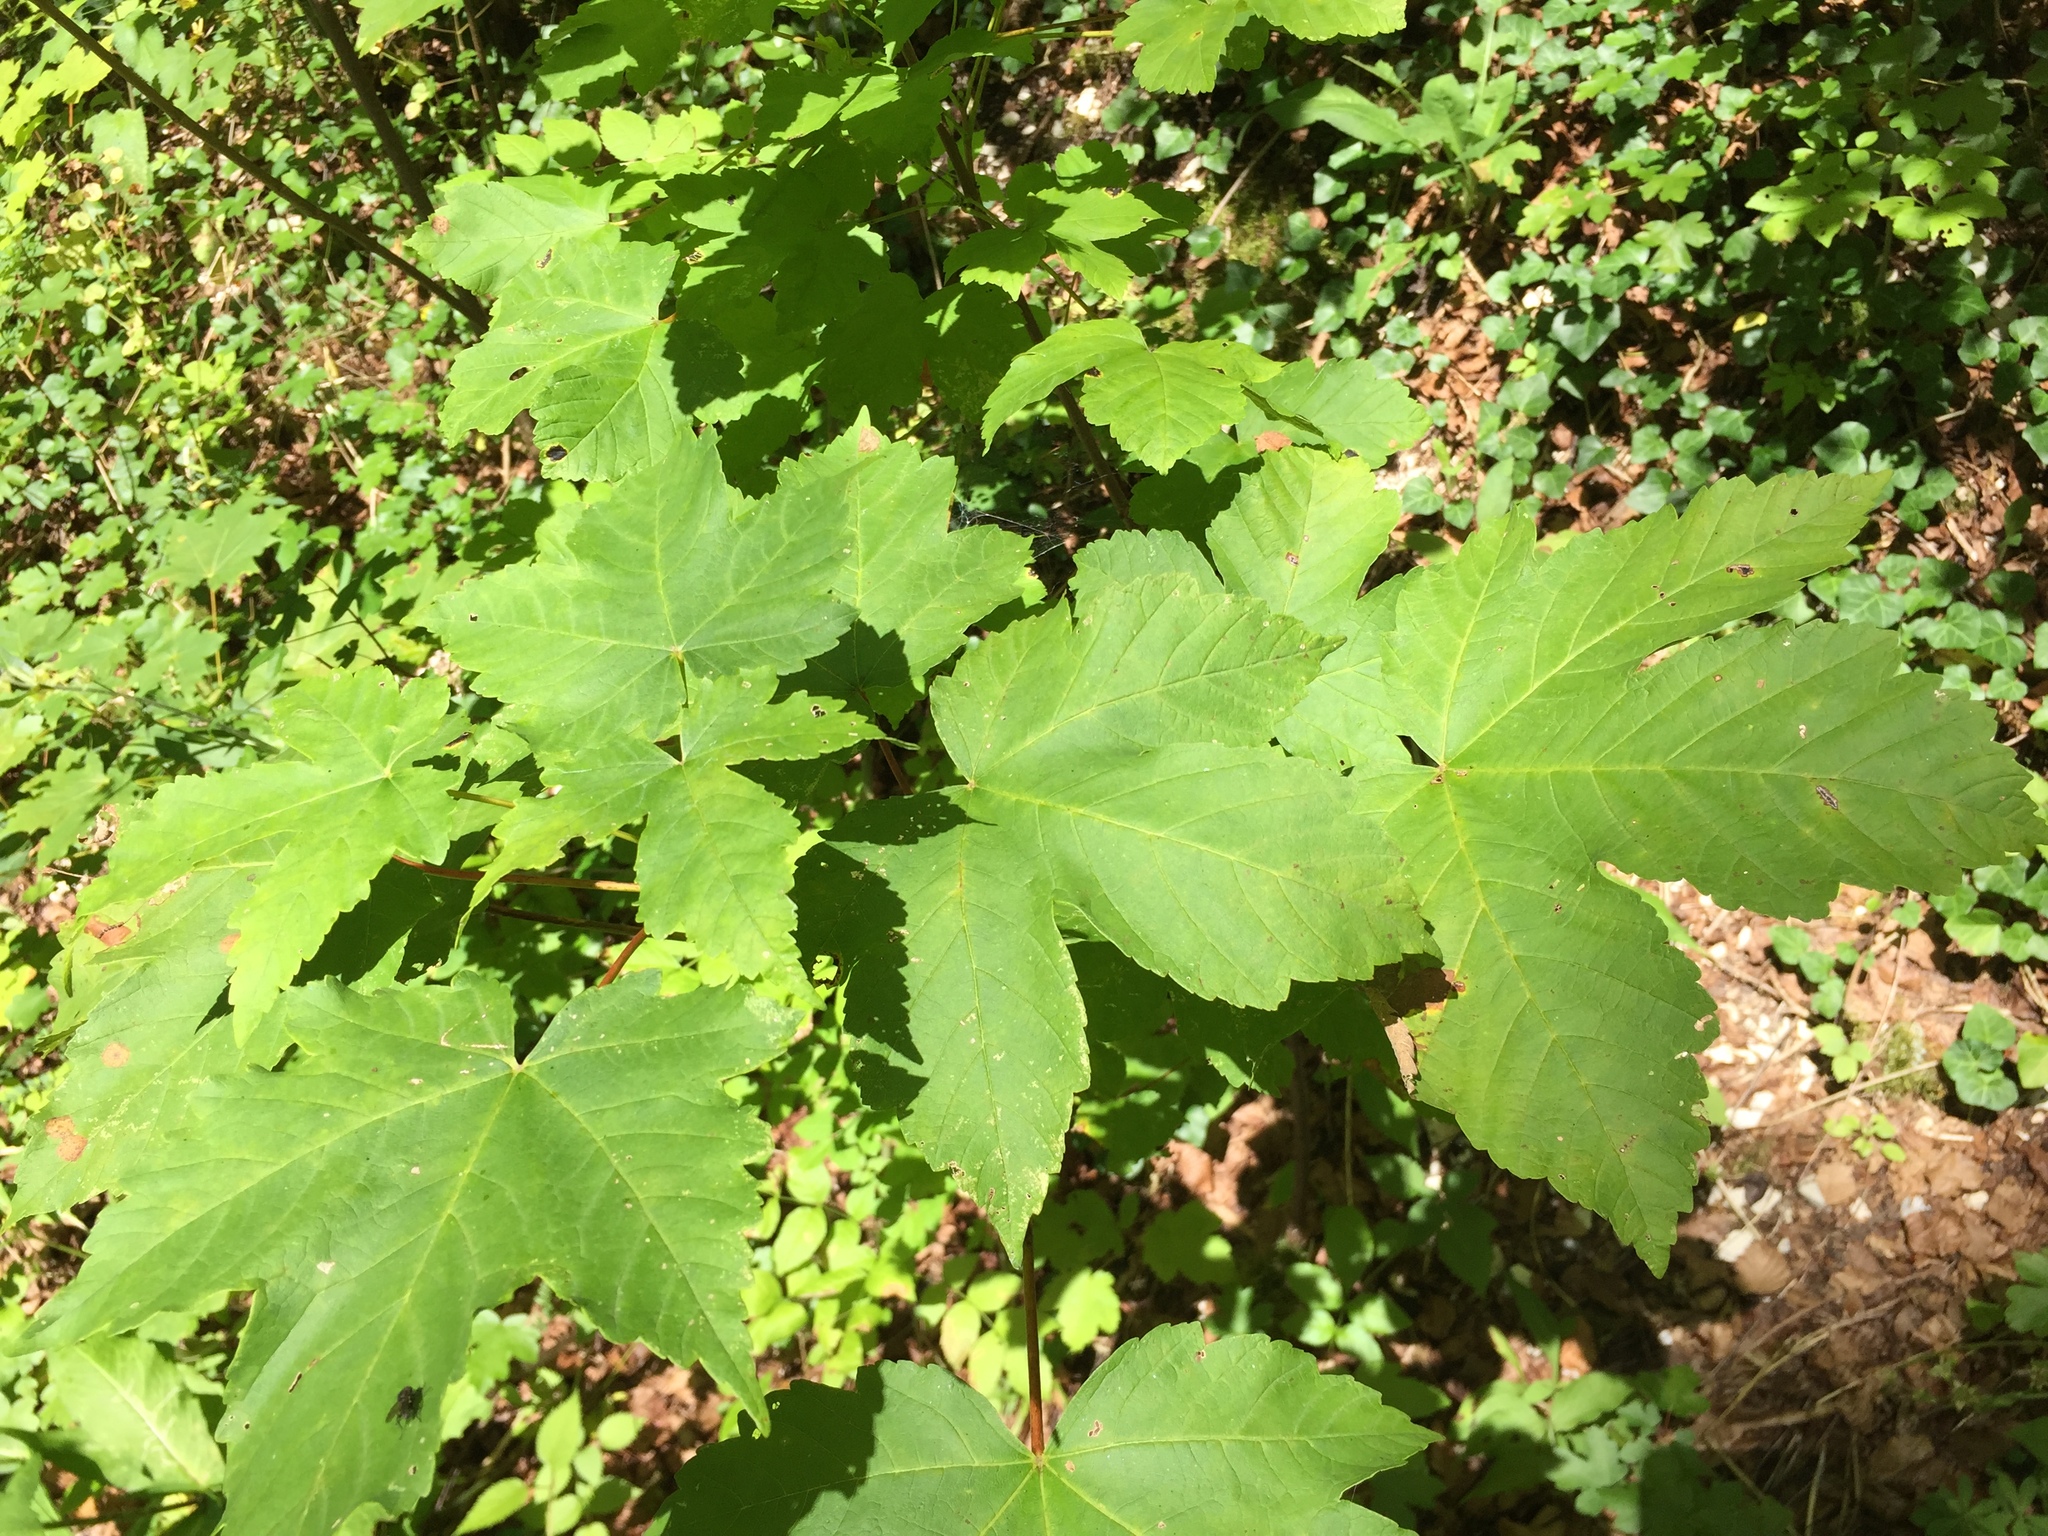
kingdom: Plantae
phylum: Tracheophyta
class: Magnoliopsida
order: Sapindales
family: Sapindaceae
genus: Acer
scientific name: Acer pseudoplatanus
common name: Sycamore
